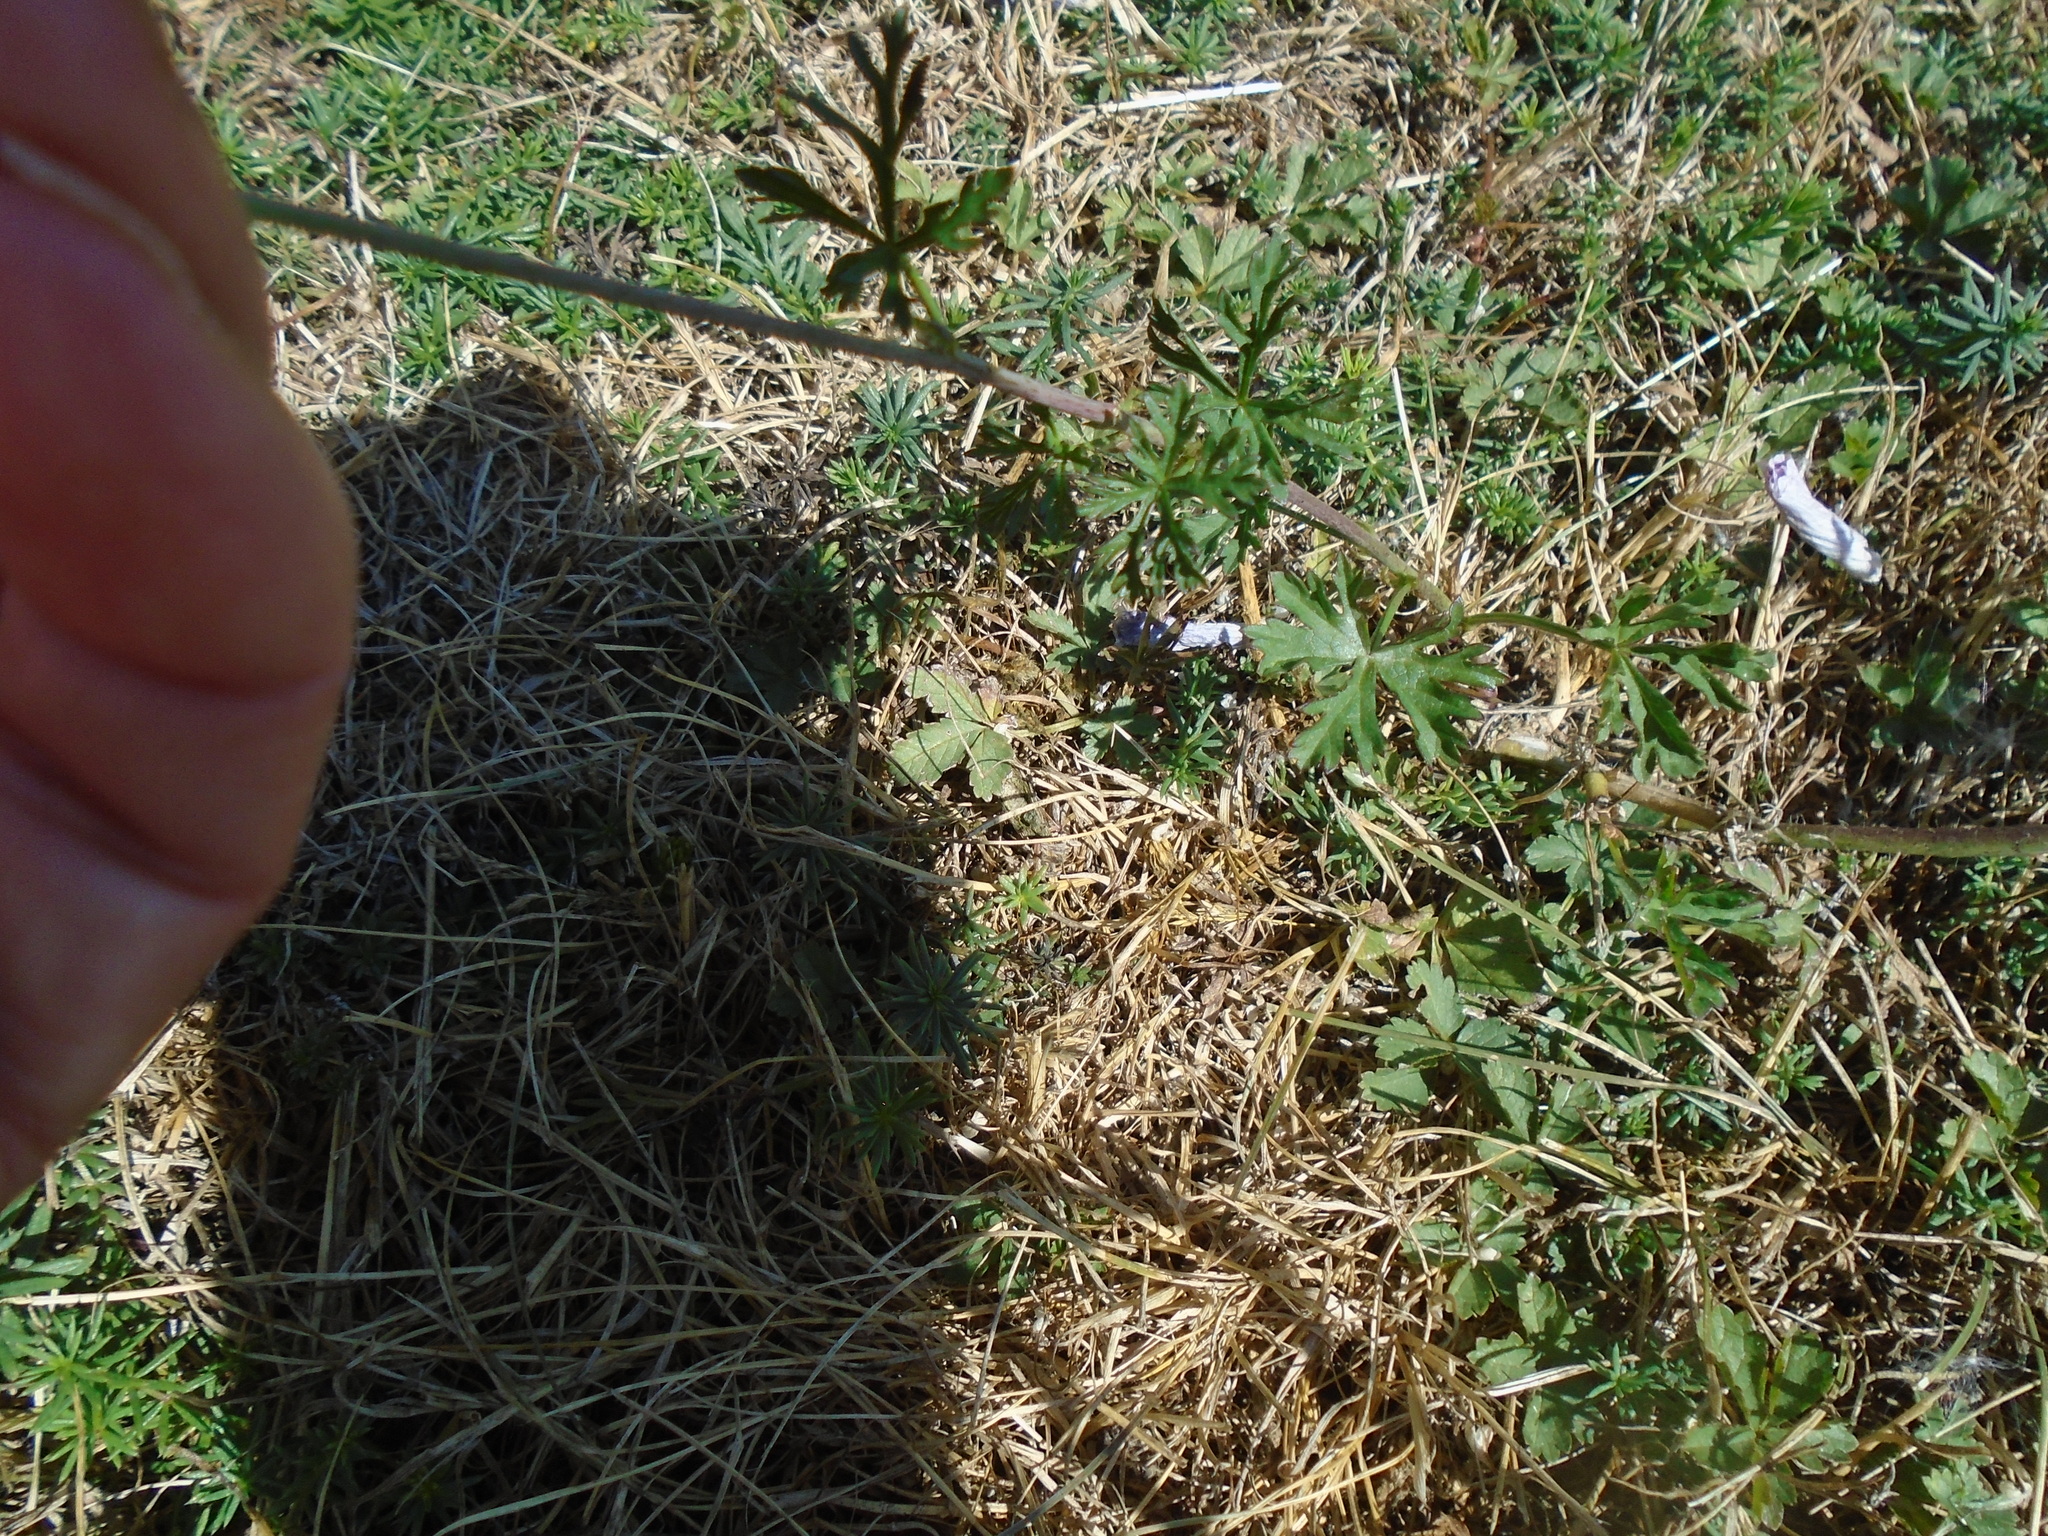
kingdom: Plantae
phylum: Tracheophyta
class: Magnoliopsida
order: Malvales
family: Malvaceae
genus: Malva
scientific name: Malva moschata
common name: Musk mallow
